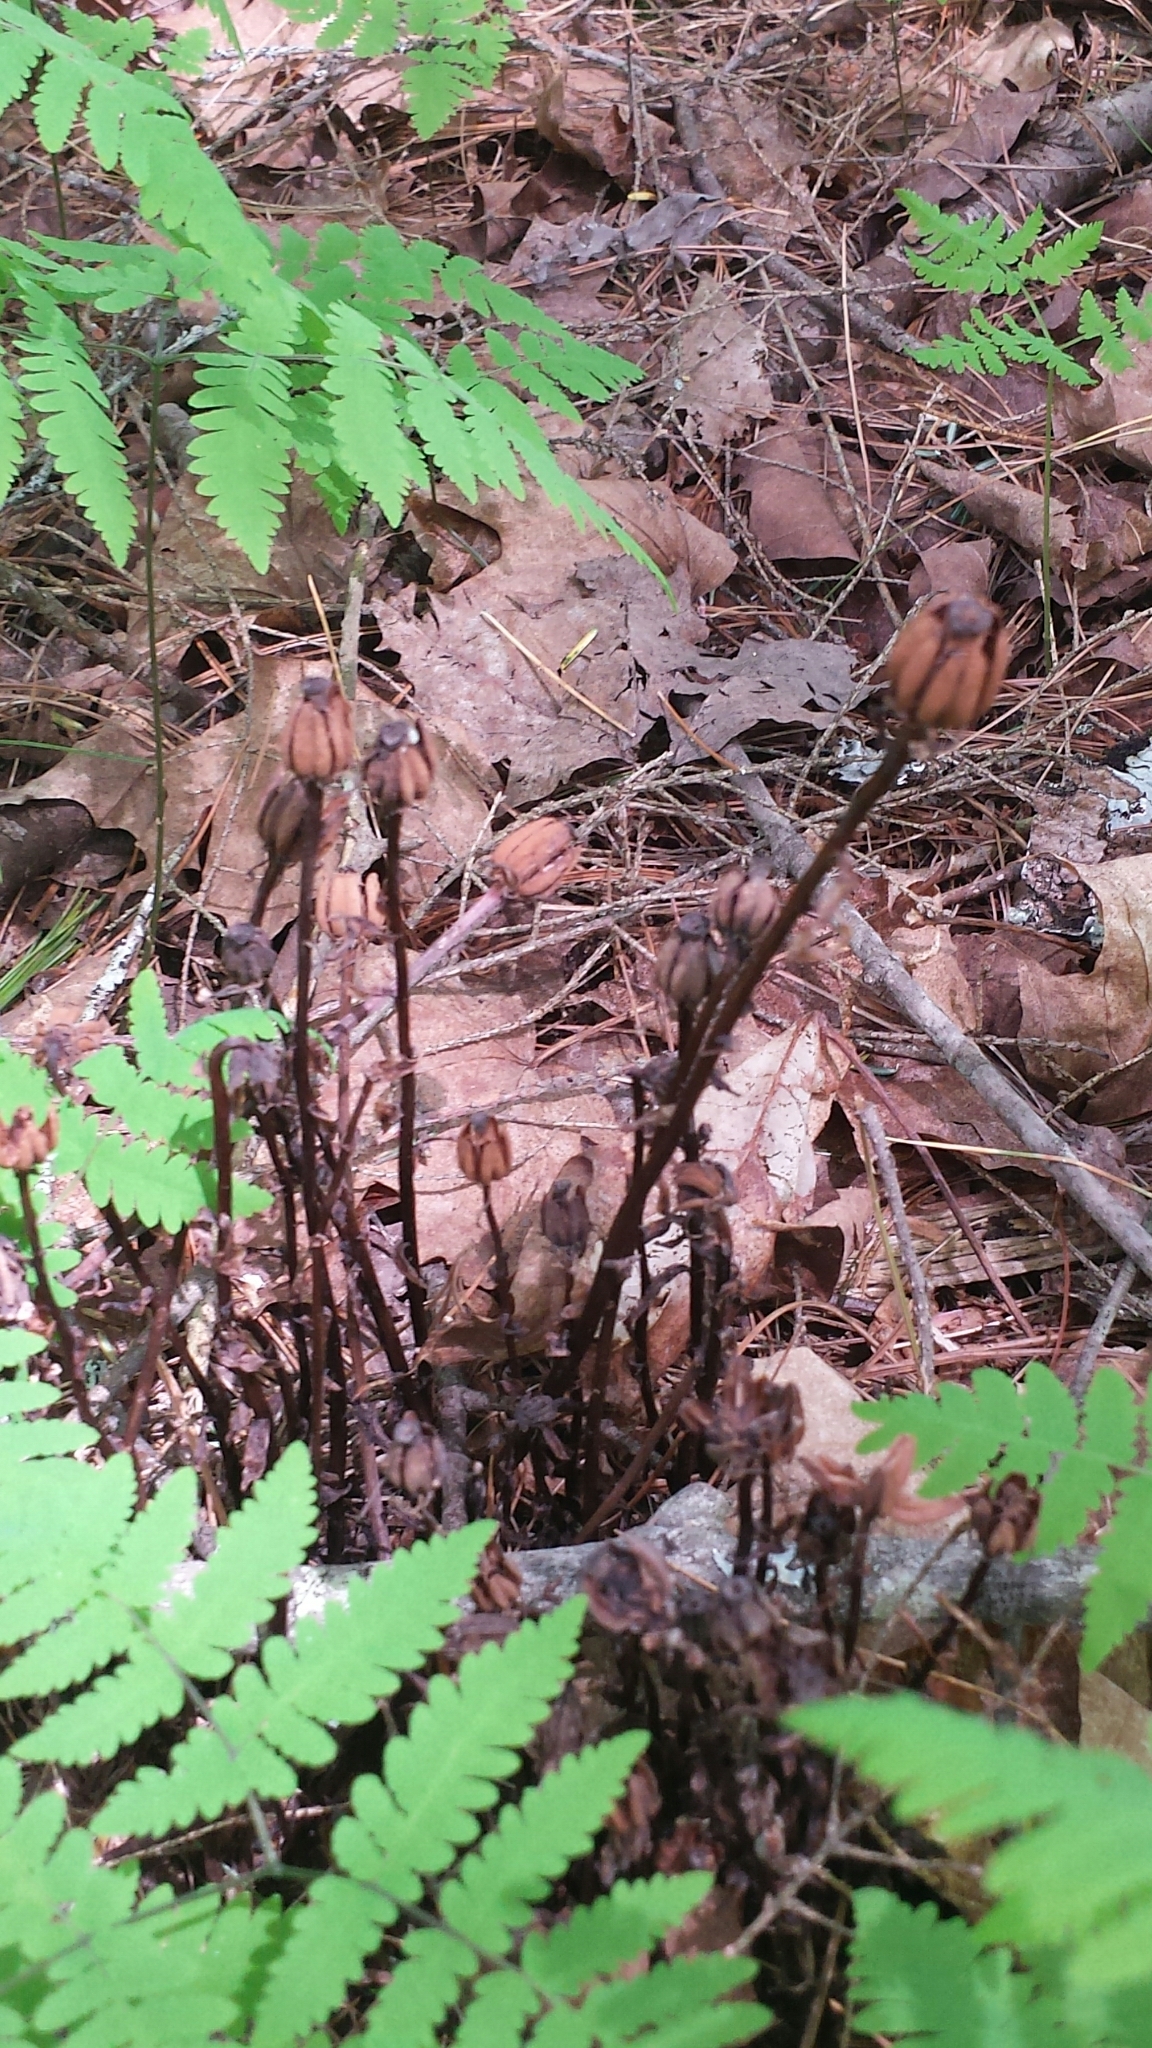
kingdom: Plantae
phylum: Tracheophyta
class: Magnoliopsida
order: Ericales
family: Ericaceae
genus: Monotropa
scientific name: Monotropa uniflora
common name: Convulsion root
